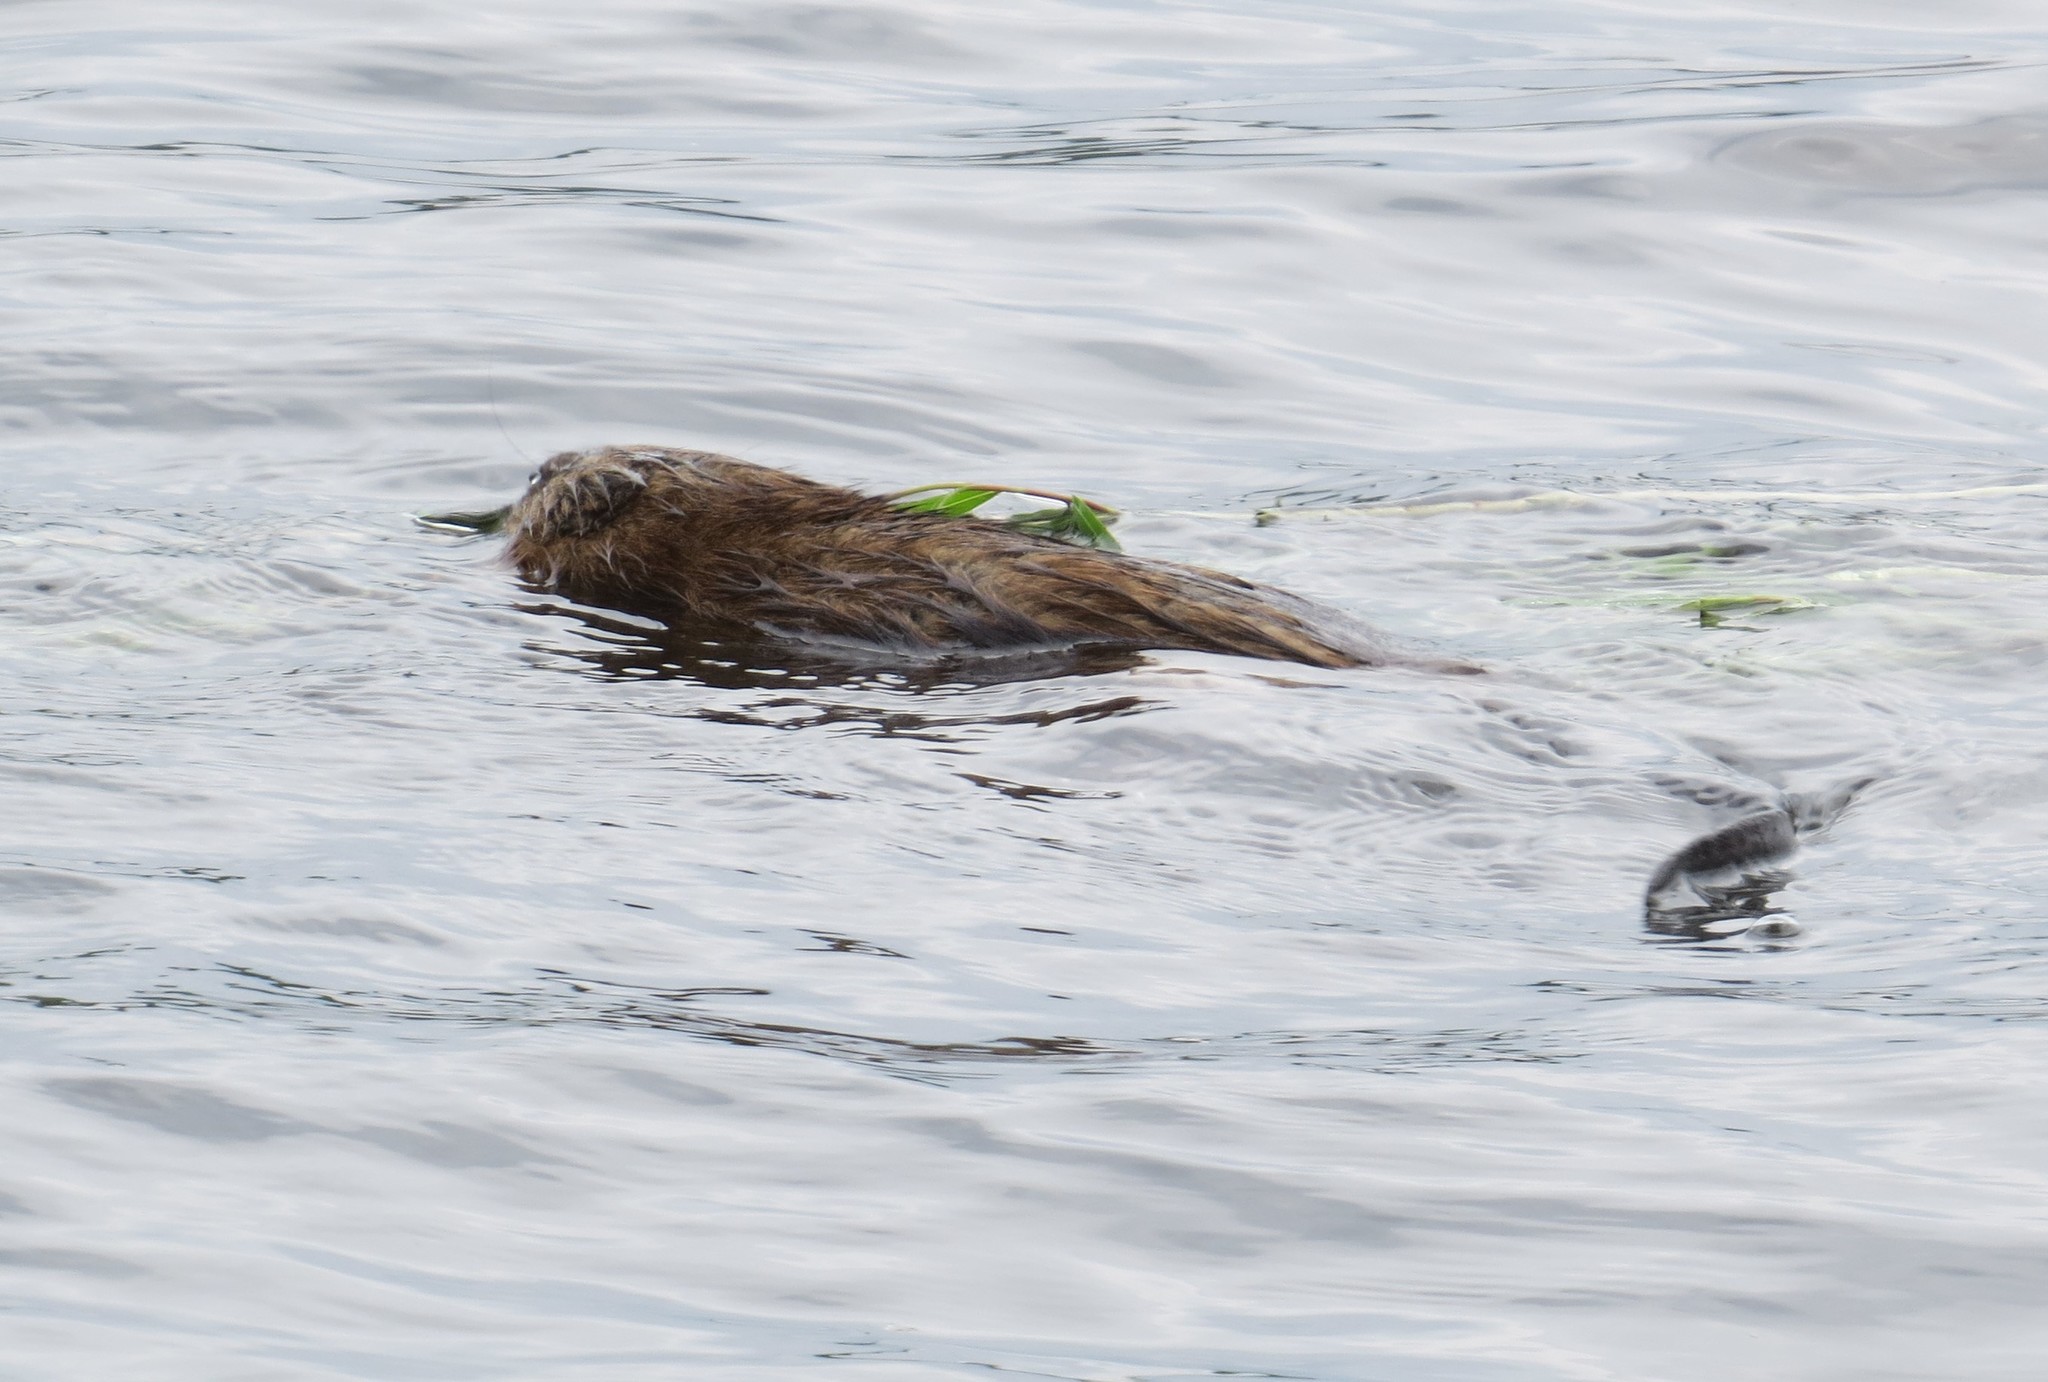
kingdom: Animalia
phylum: Chordata
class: Mammalia
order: Rodentia
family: Cricetidae
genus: Ondatra
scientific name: Ondatra zibethicus
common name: Muskrat
